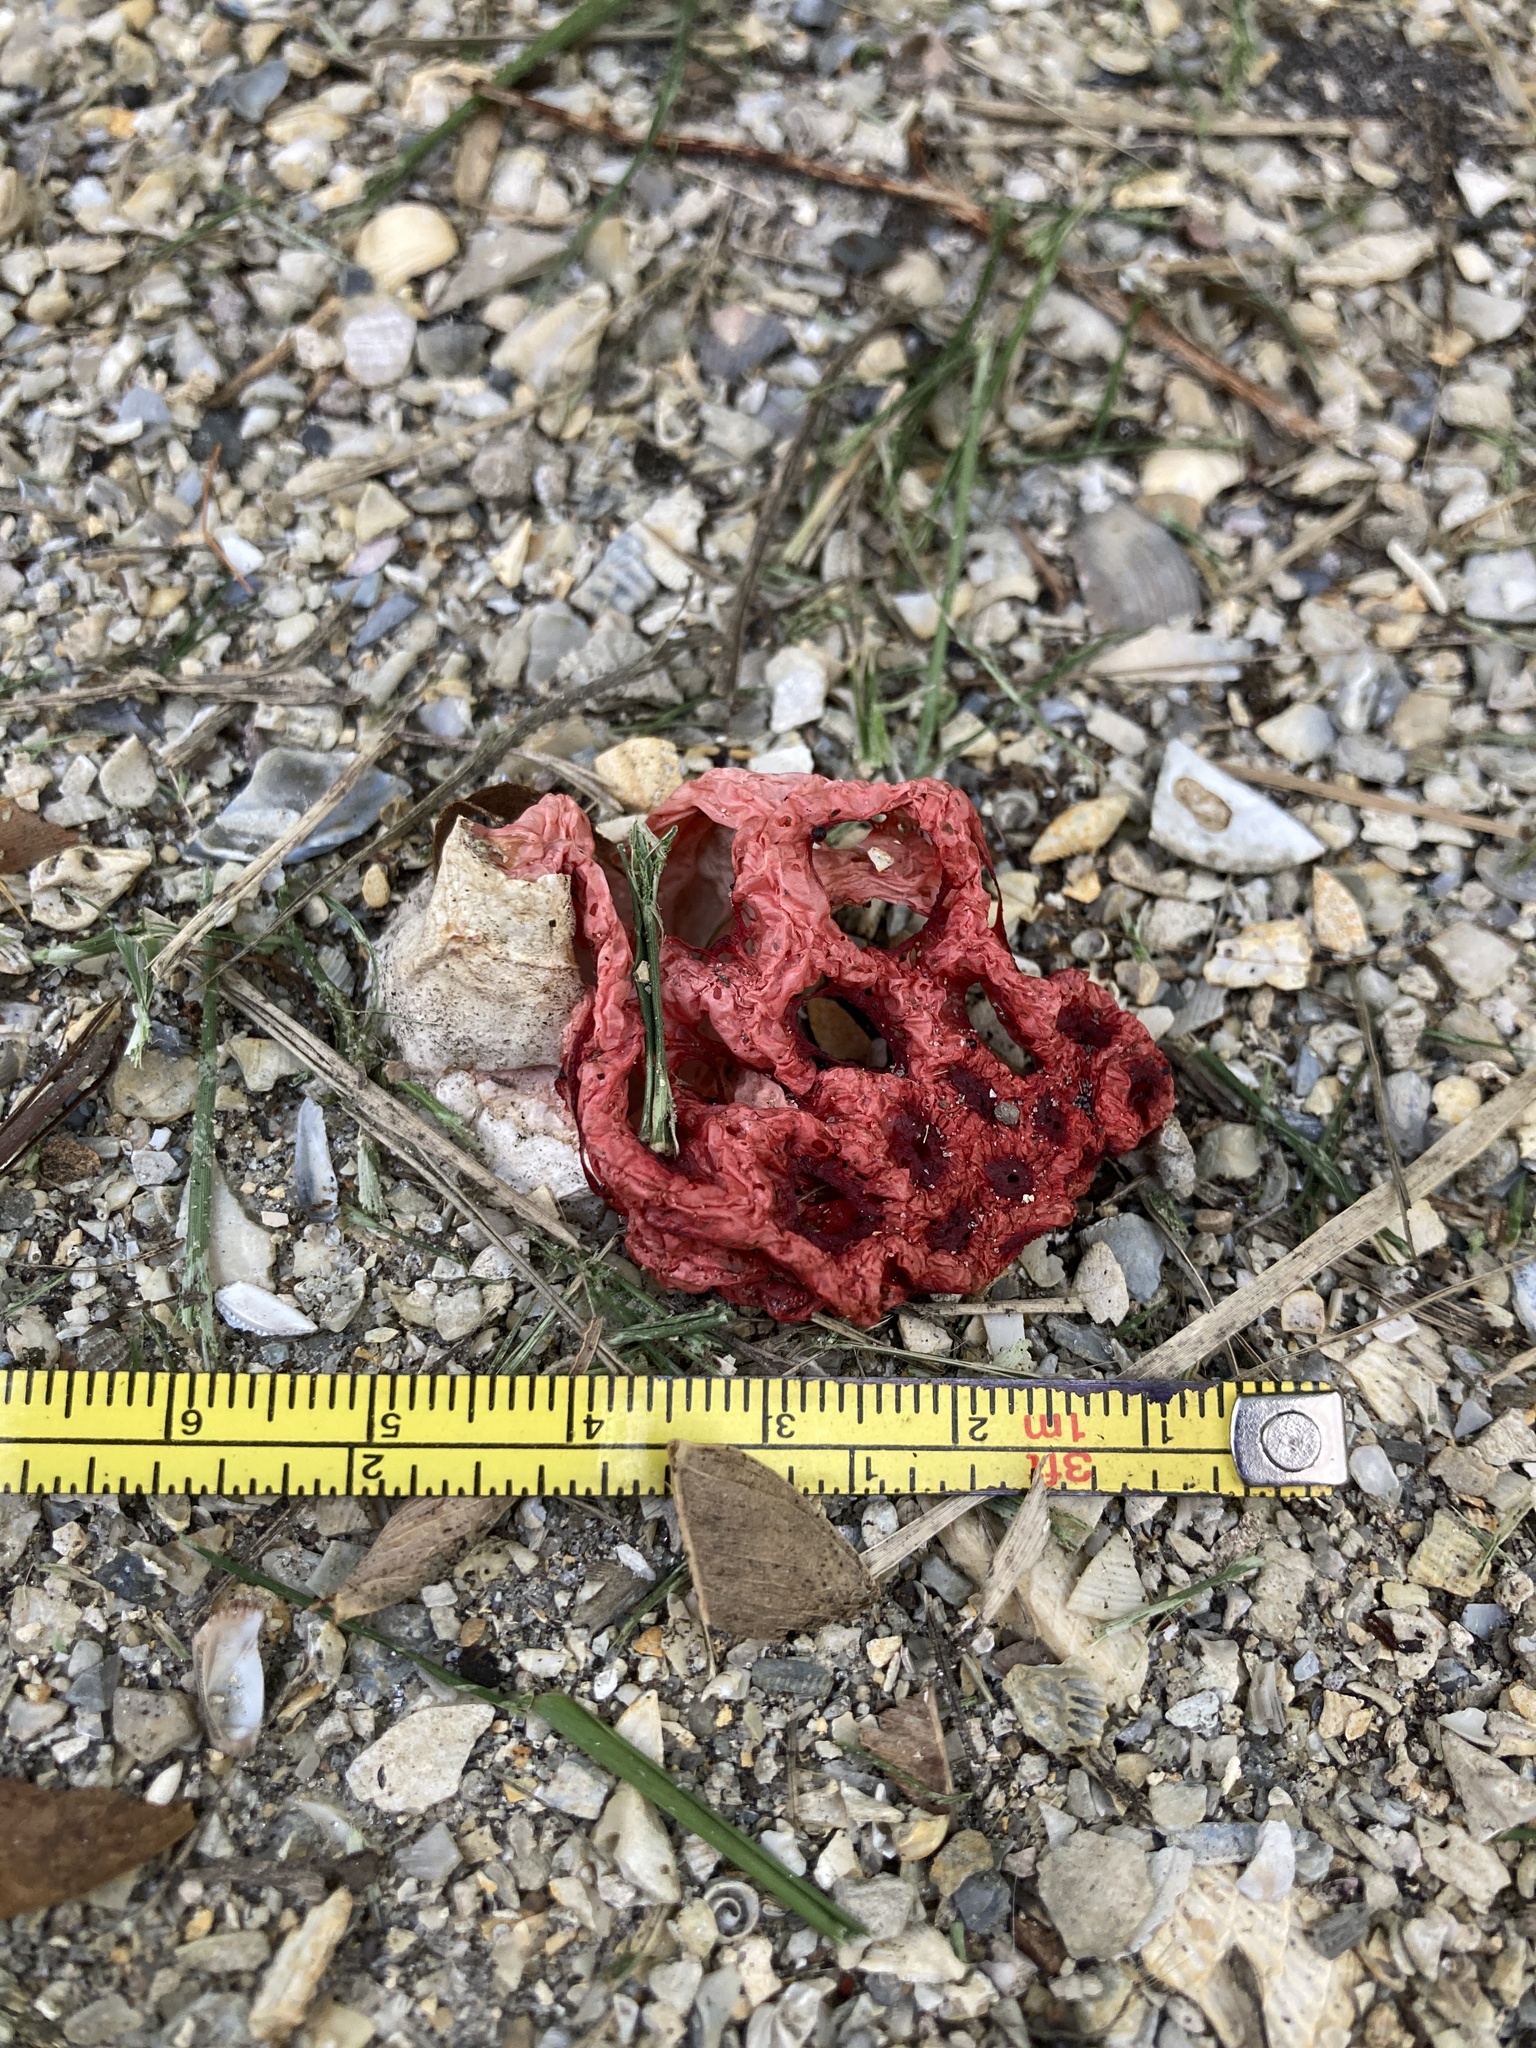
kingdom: Fungi
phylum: Basidiomycota
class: Agaricomycetes
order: Phallales
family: Phallaceae
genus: Clathrus
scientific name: Clathrus crispatus
